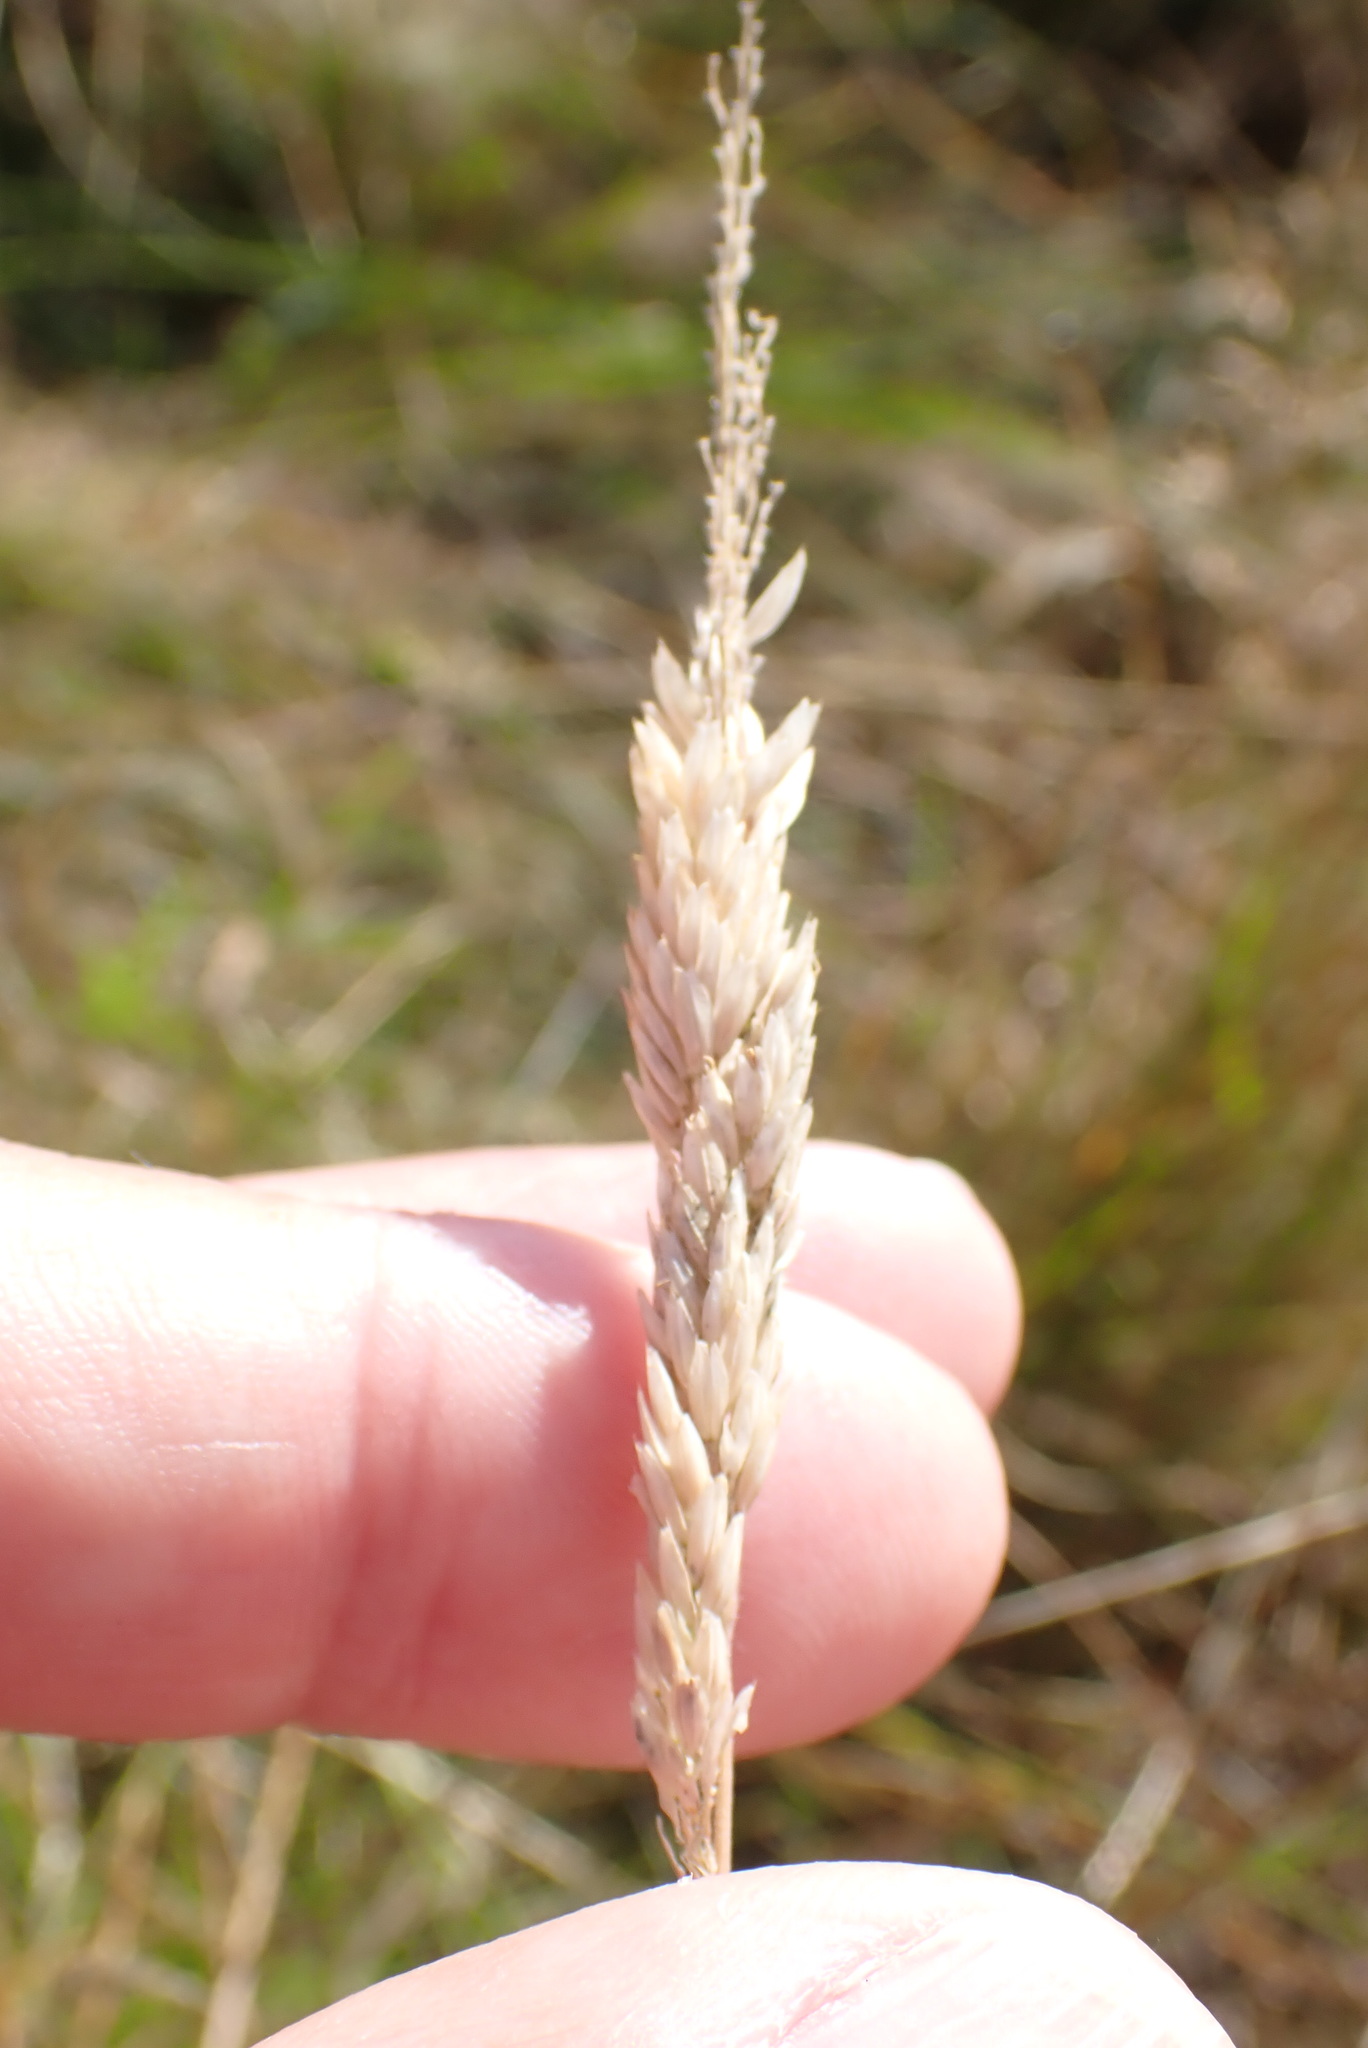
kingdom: Plantae
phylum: Tracheophyta
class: Liliopsida
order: Poales
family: Poaceae
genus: Holcus
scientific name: Holcus lanatus
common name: Yorkshire-fog
